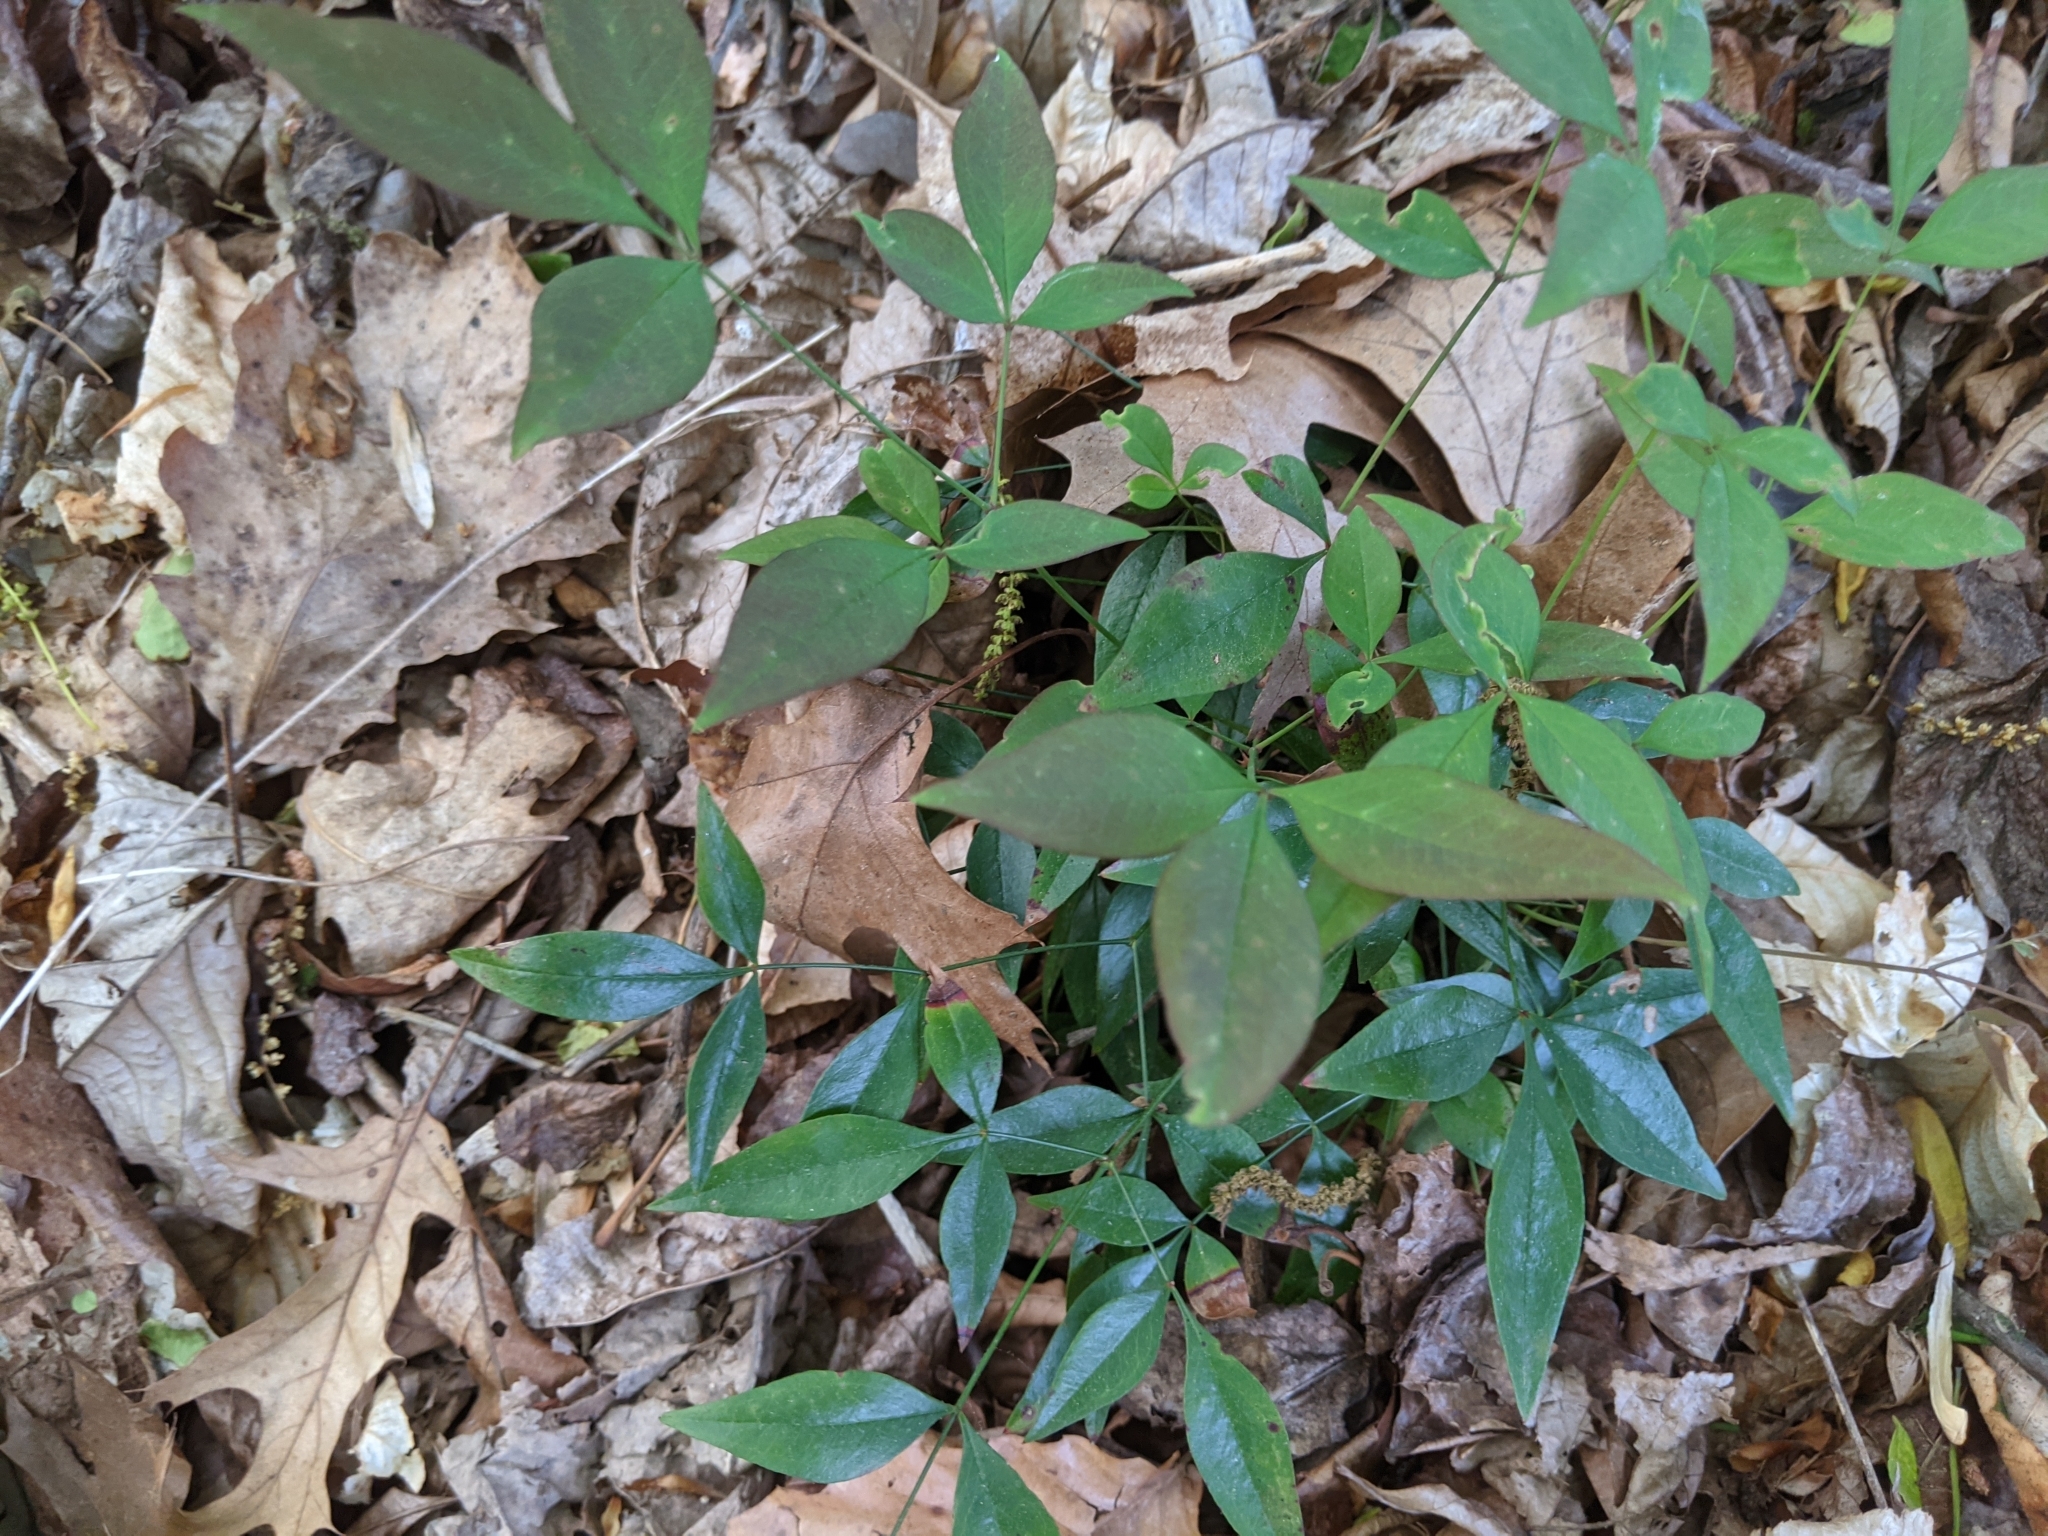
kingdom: Plantae
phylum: Tracheophyta
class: Magnoliopsida
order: Ranunculales
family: Berberidaceae
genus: Nandina
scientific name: Nandina domestica
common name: Sacred bamboo
